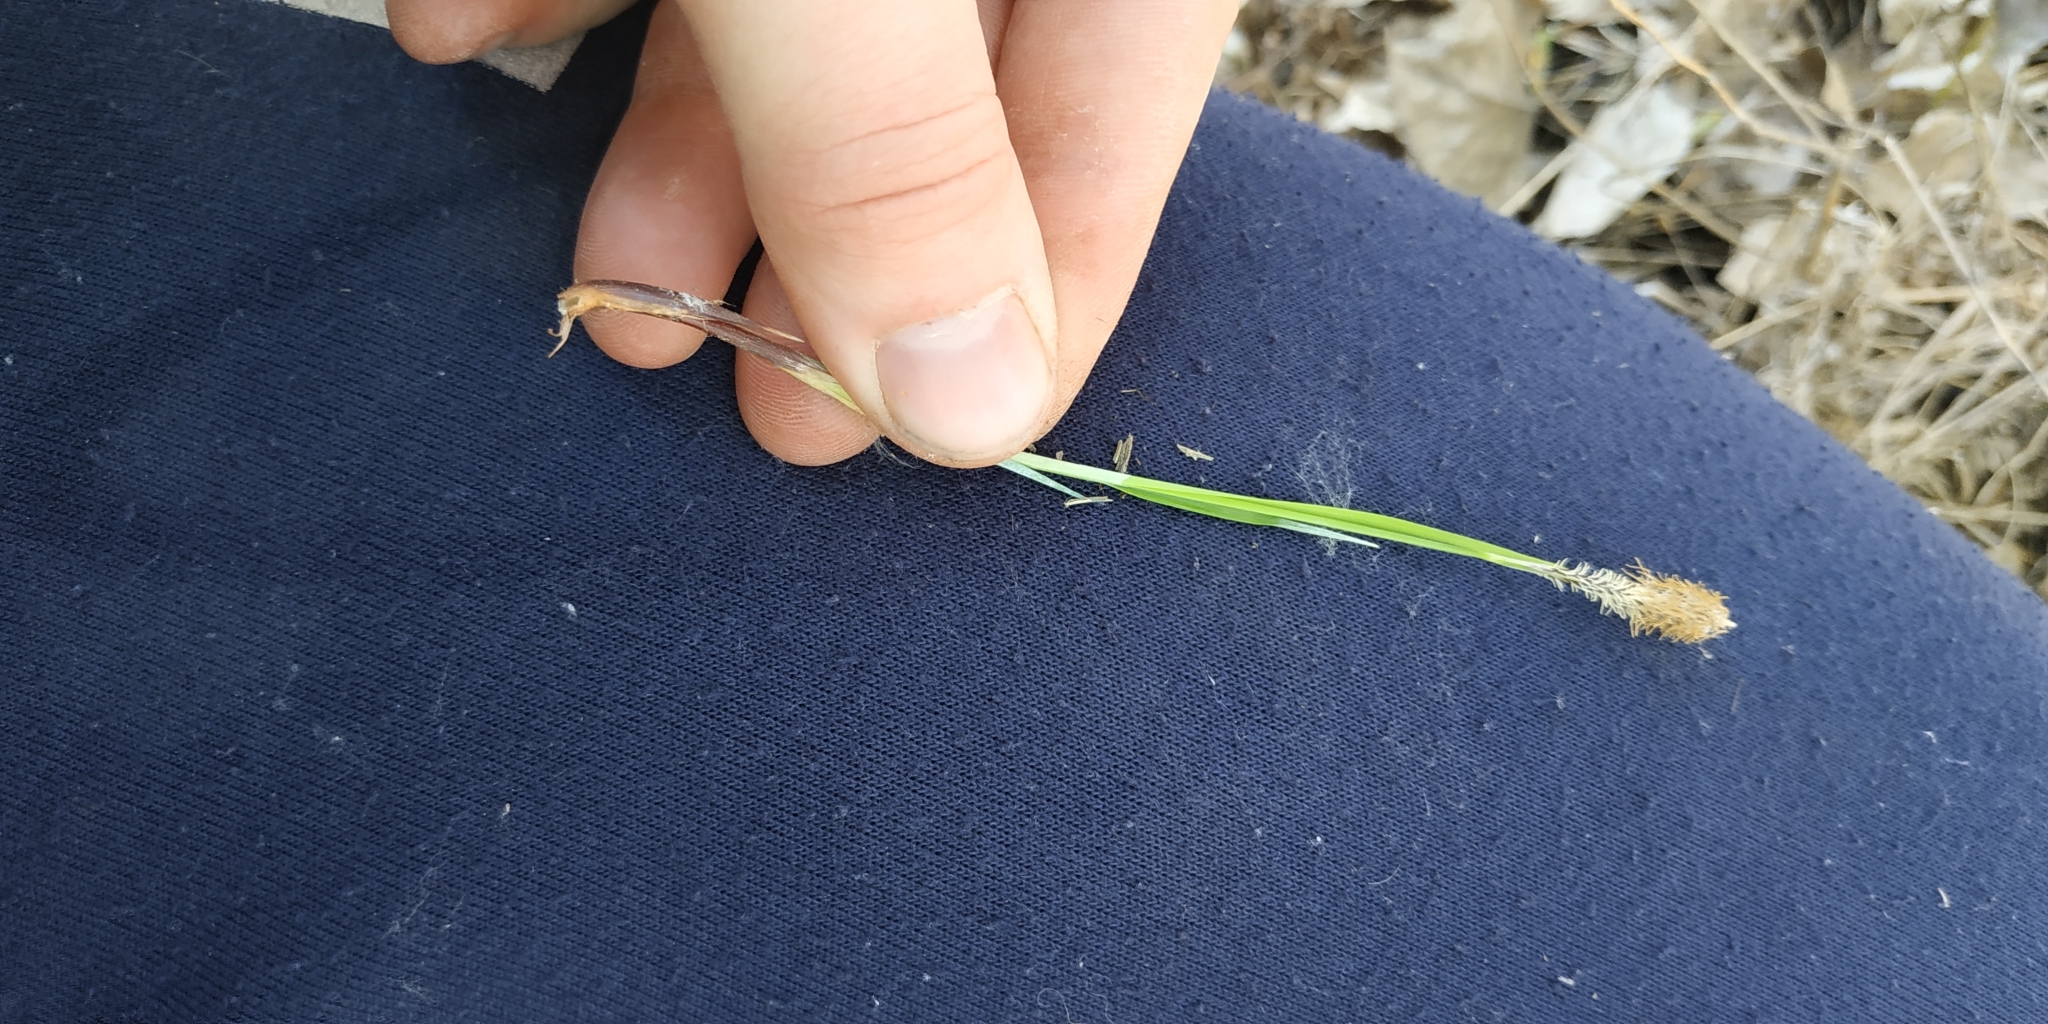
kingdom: Plantae
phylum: Tracheophyta
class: Liliopsida
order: Poales
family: Cyperaceae
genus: Carex
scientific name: Carex cespitosa
